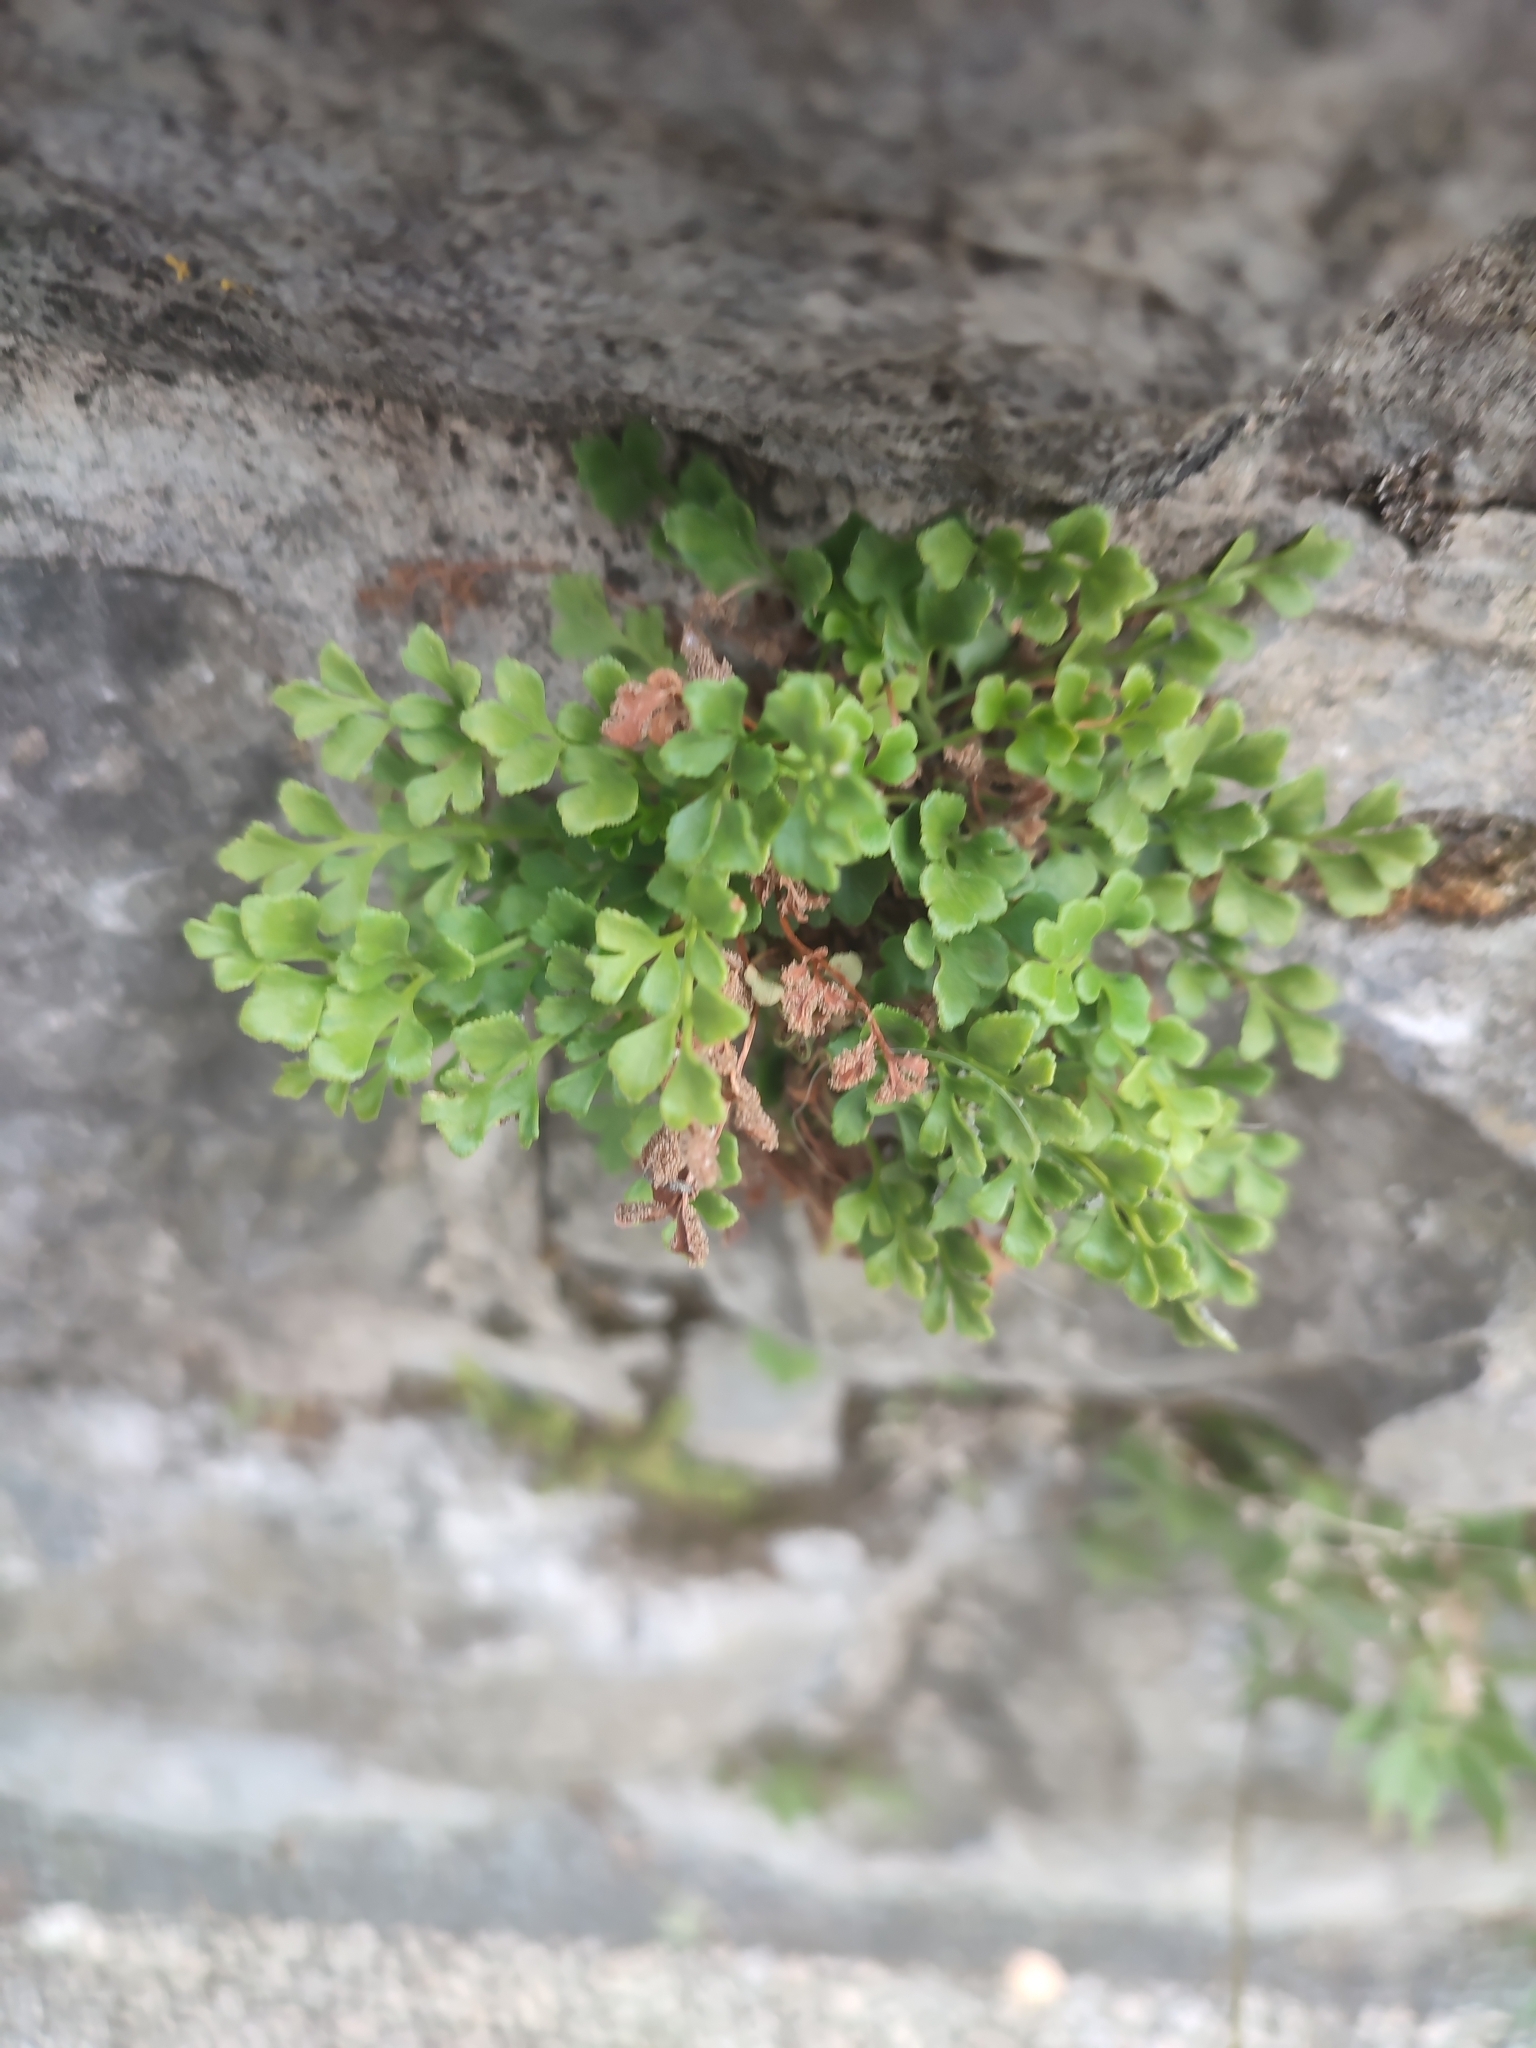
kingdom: Plantae
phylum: Tracheophyta
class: Polypodiopsida
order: Polypodiales
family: Aspleniaceae
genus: Asplenium
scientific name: Asplenium ruta-muraria
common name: Wall-rue
